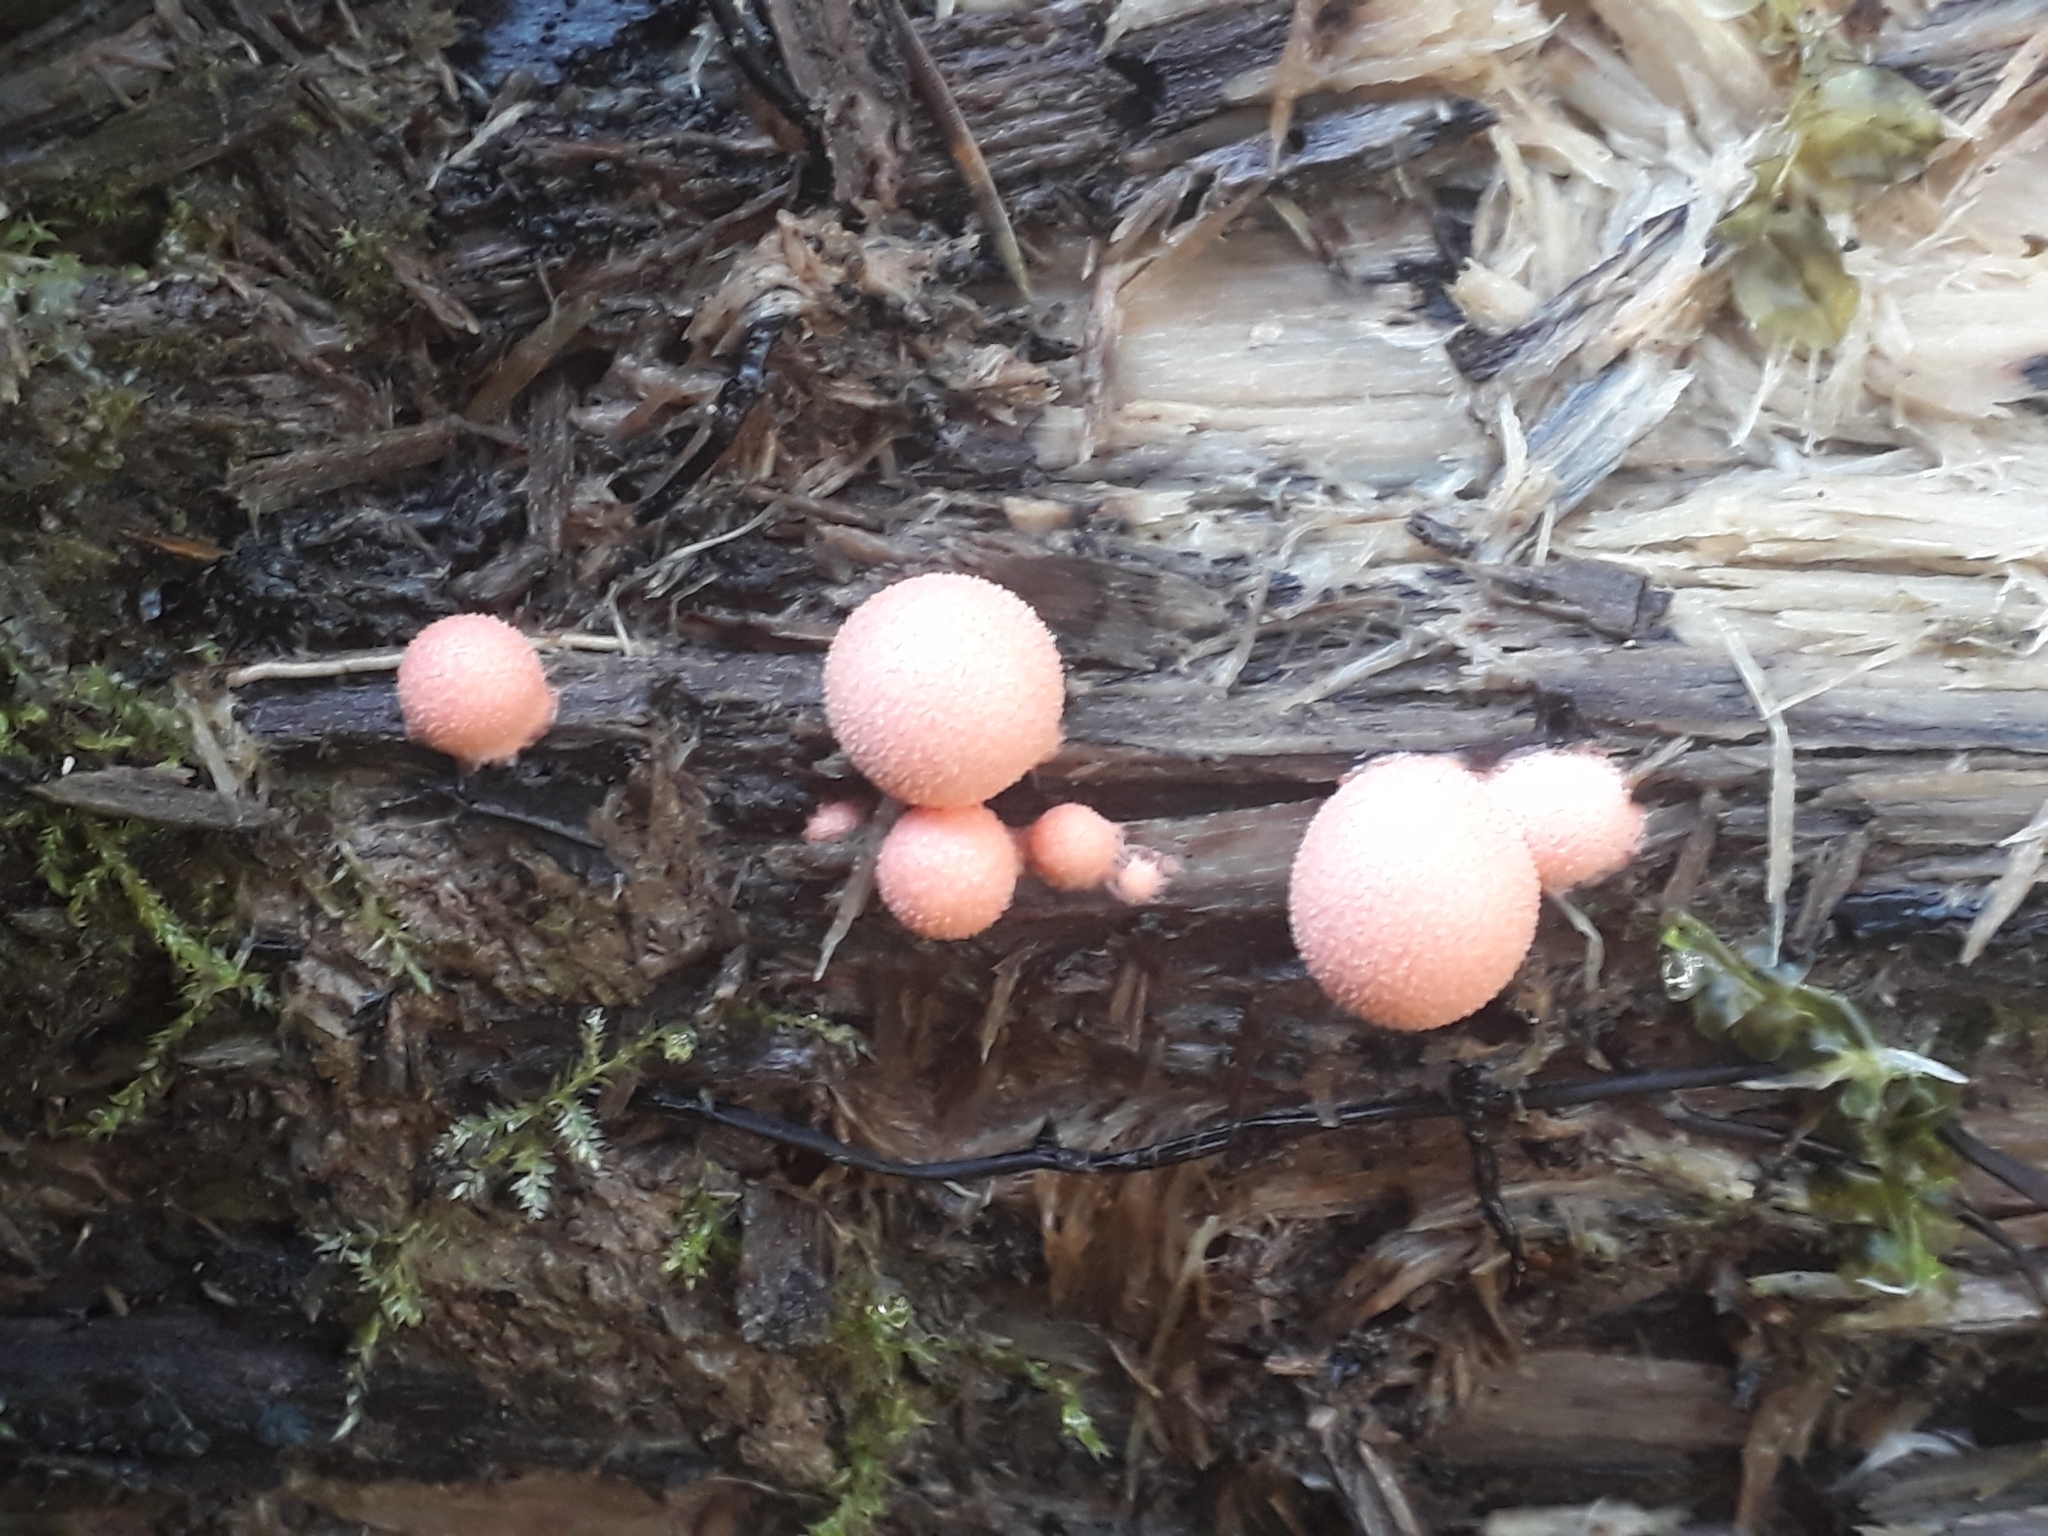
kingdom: Protozoa
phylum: Mycetozoa
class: Myxomycetes
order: Cribrariales
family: Tubiferaceae
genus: Lycogala
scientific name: Lycogala epidendrum
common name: Wolf's milk
